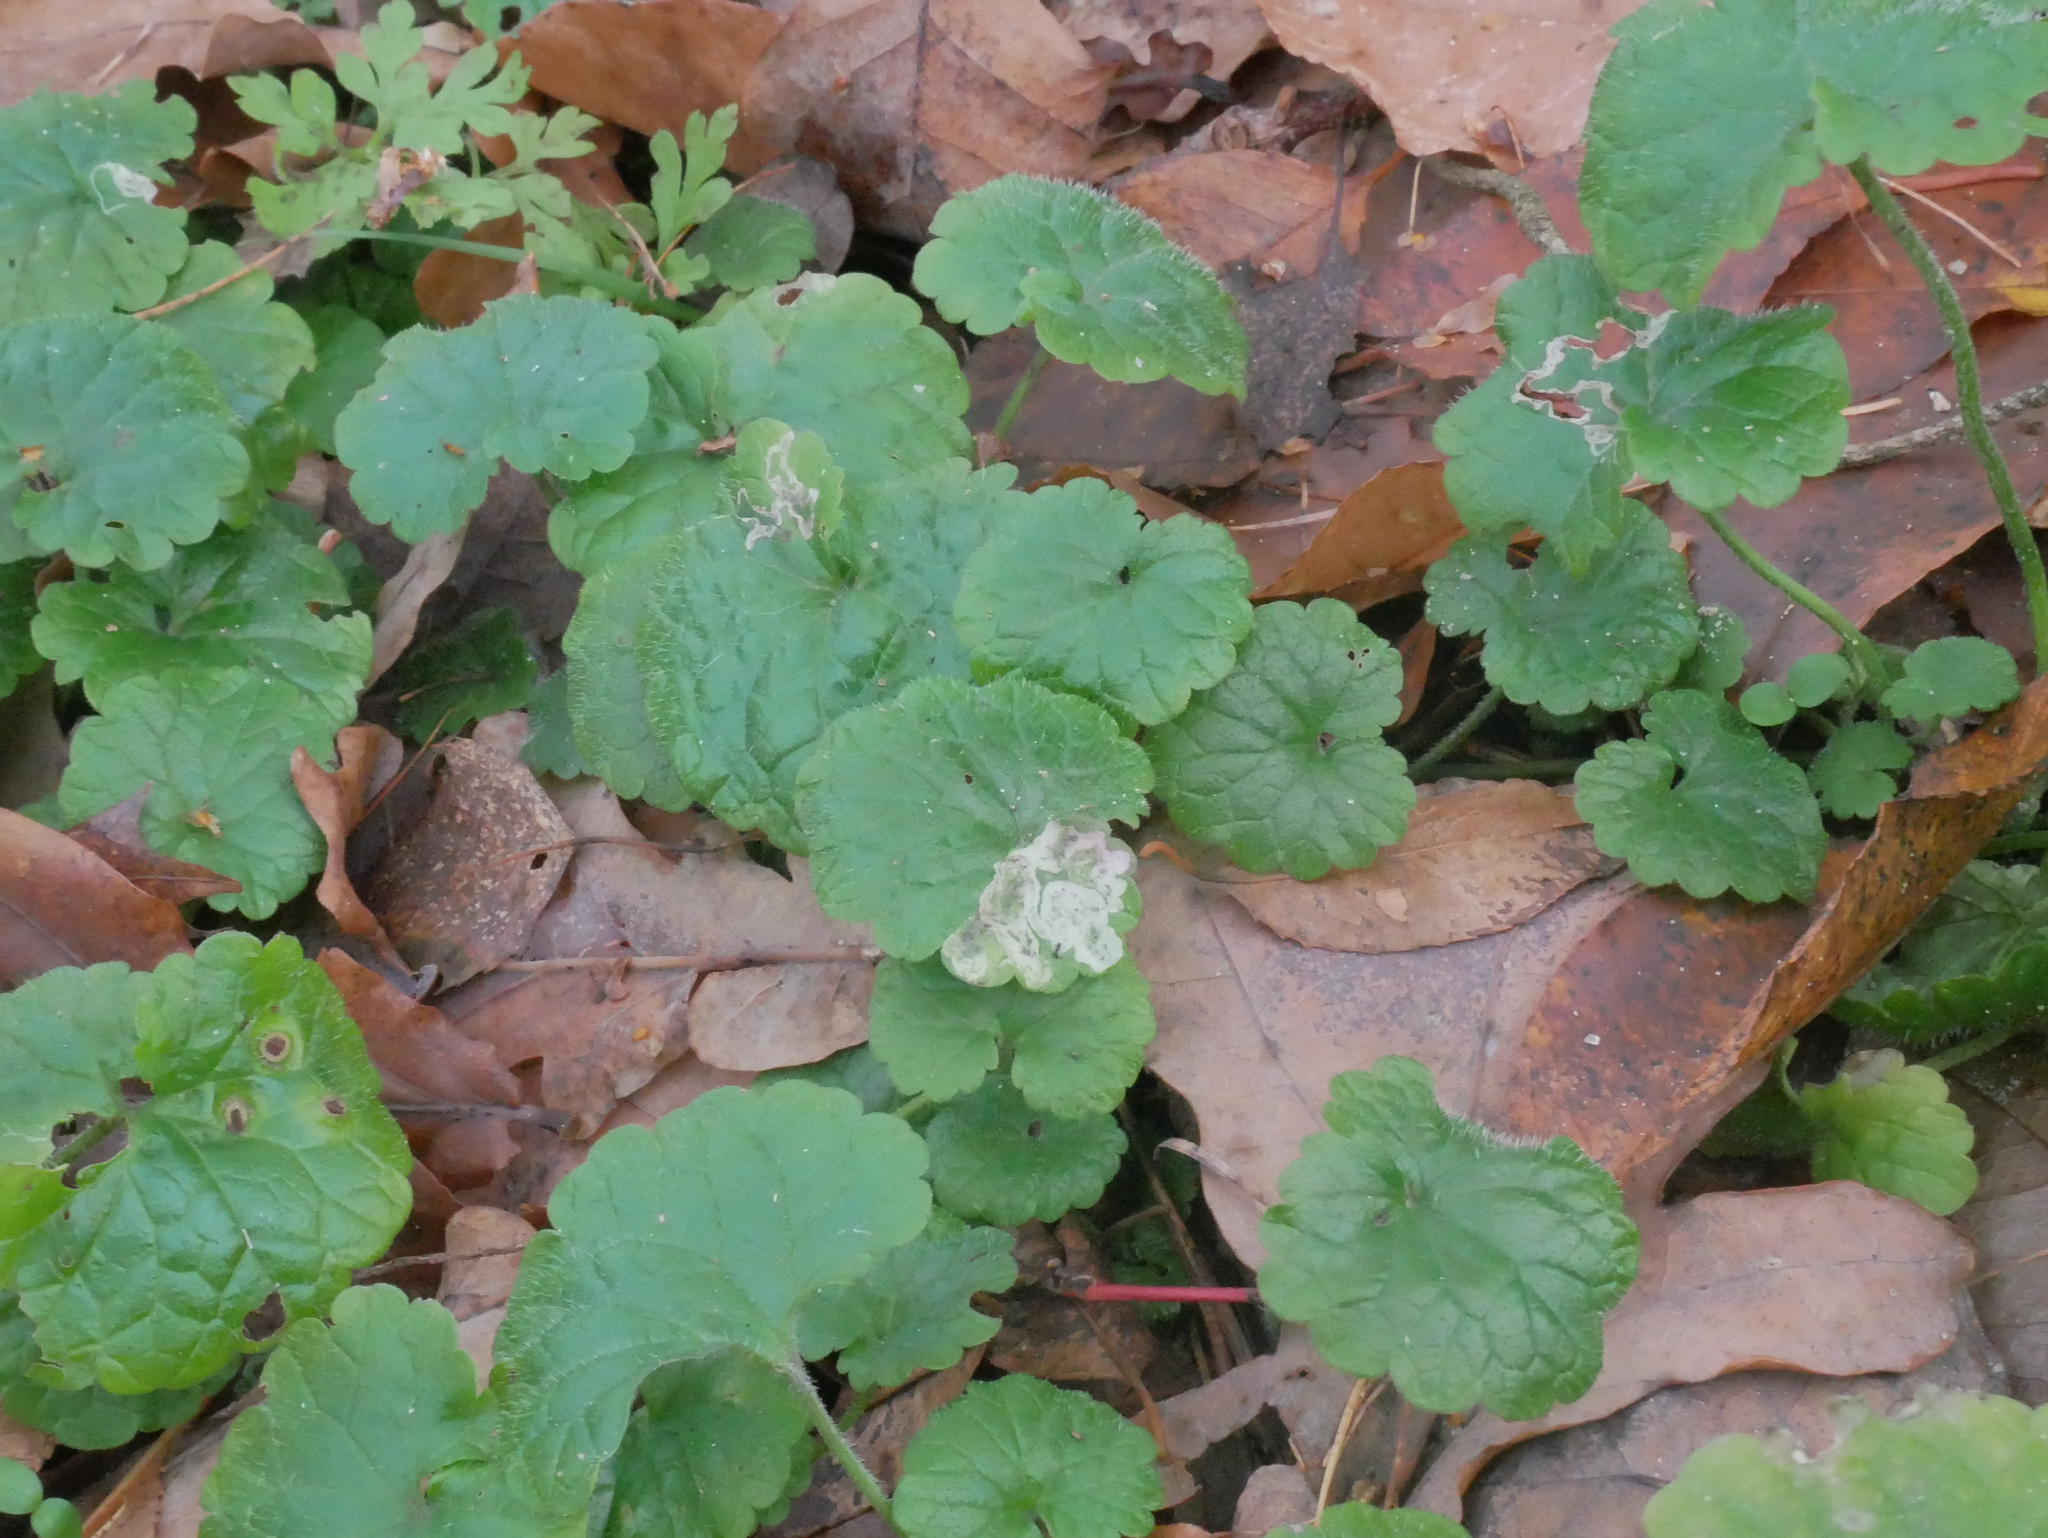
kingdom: Plantae
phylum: Tracheophyta
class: Magnoliopsida
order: Lamiales
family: Lamiaceae
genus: Glechoma
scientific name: Glechoma hederacea
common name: Ground ivy
